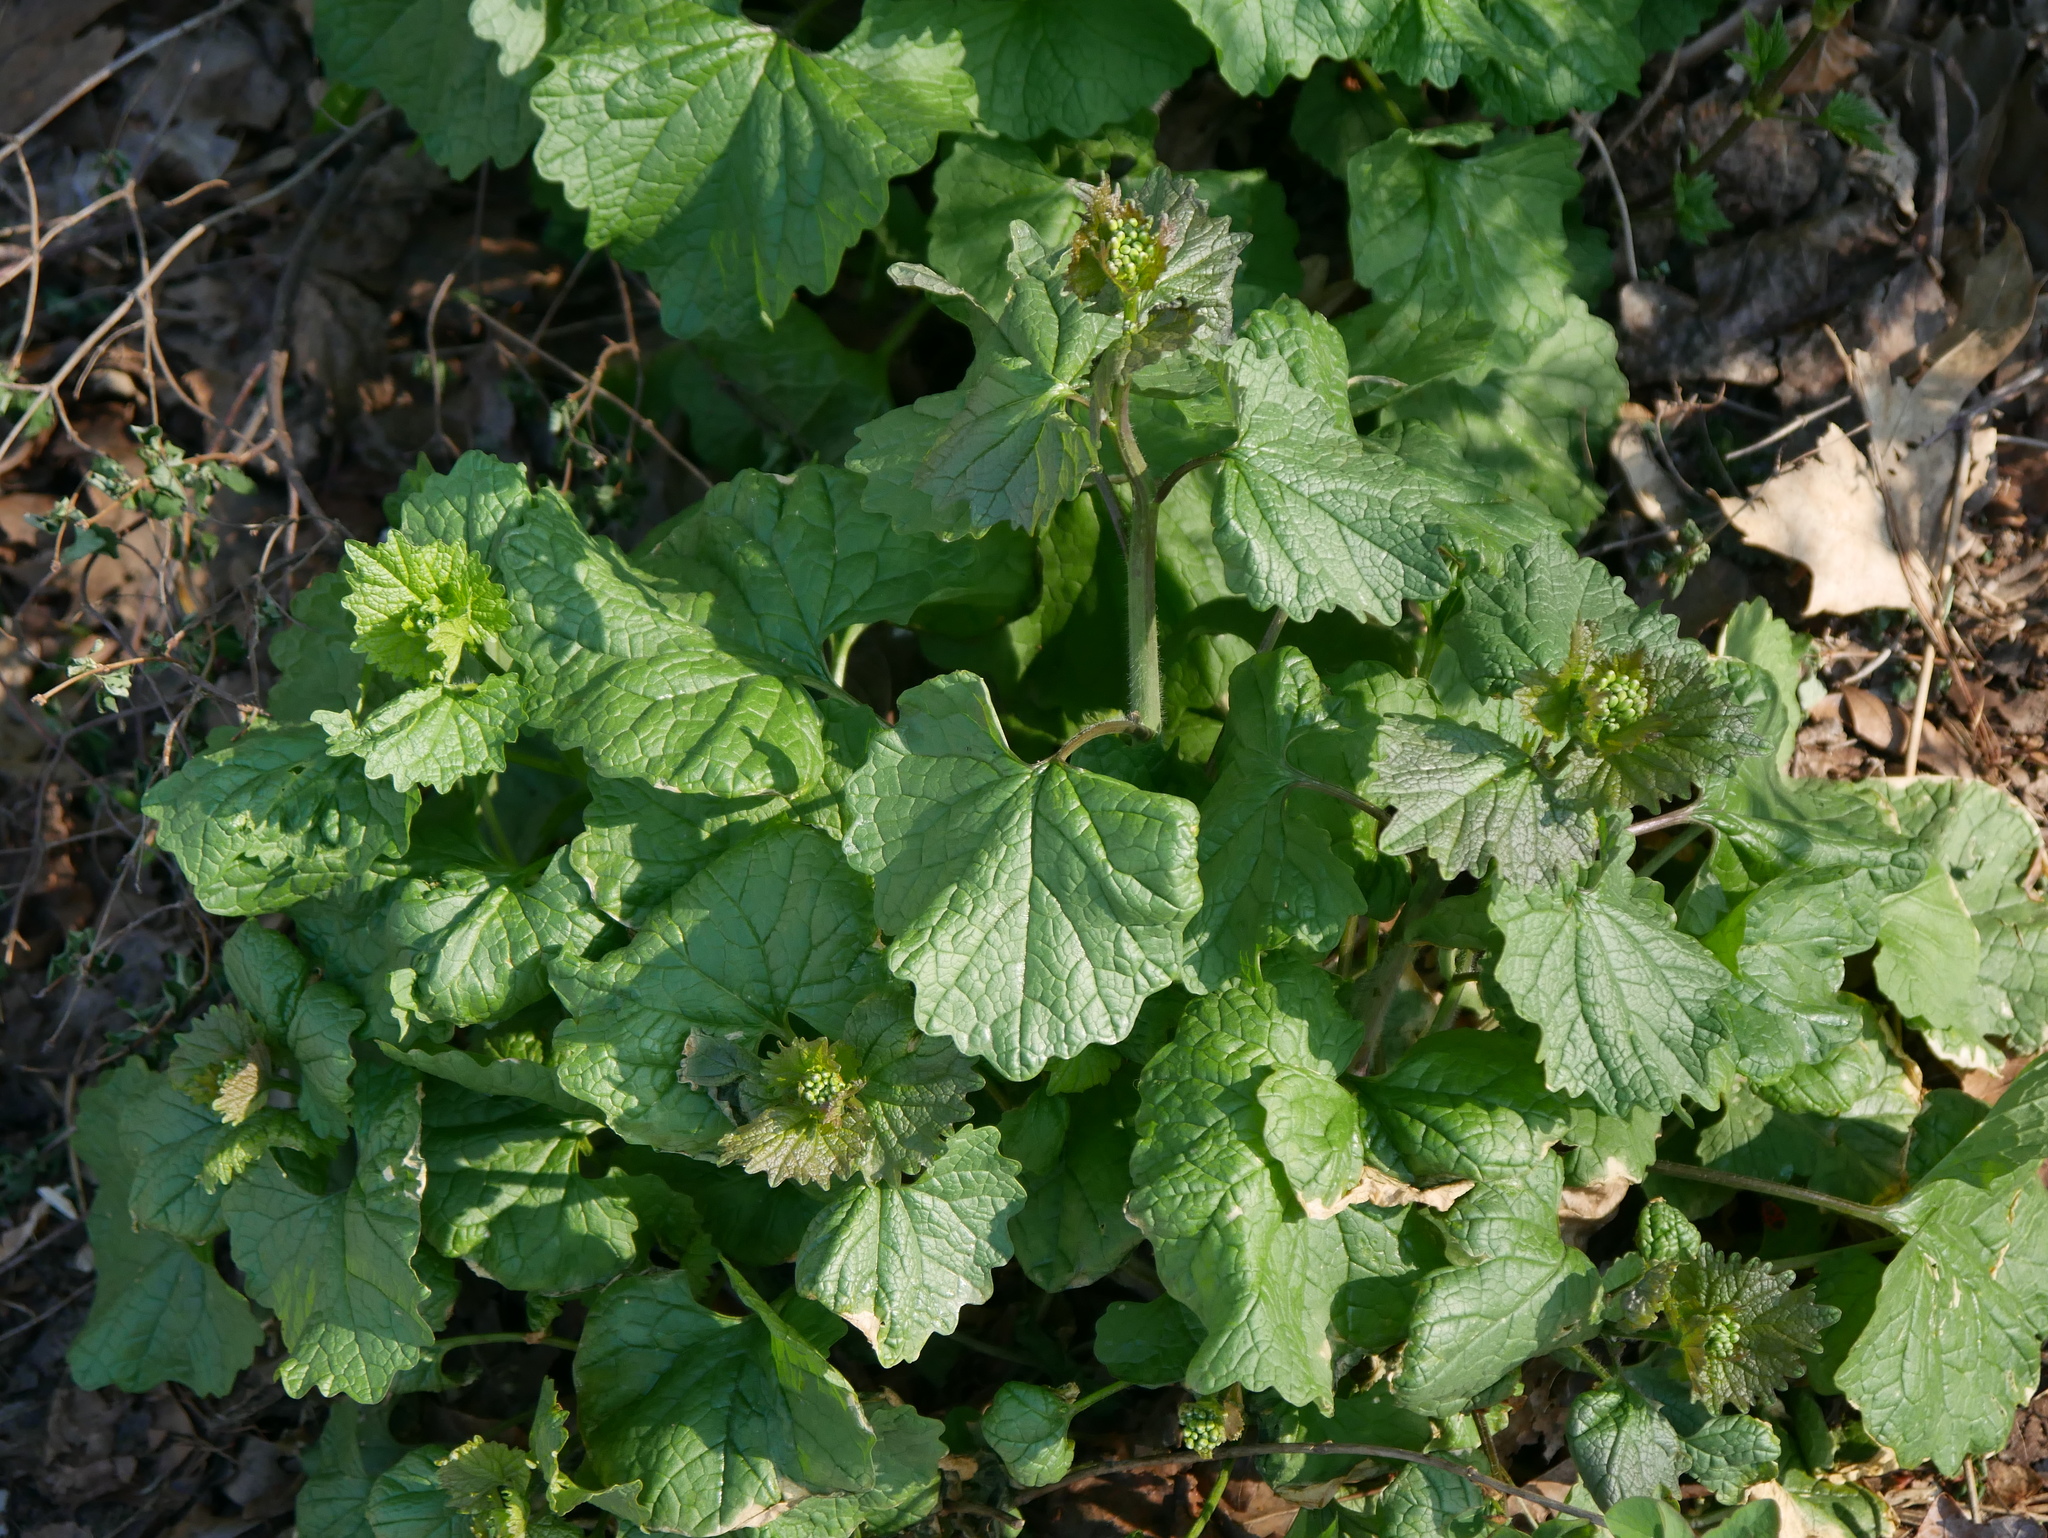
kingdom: Plantae
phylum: Tracheophyta
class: Magnoliopsida
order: Brassicales
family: Brassicaceae
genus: Alliaria
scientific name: Alliaria petiolata
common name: Garlic mustard
